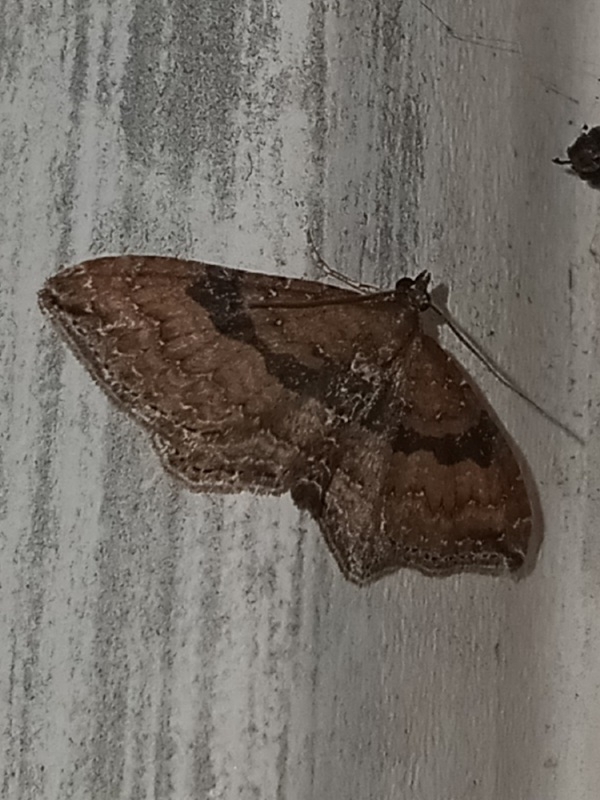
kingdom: Animalia
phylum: Arthropoda
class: Insecta
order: Lepidoptera
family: Geometridae
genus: Orthonama
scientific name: Orthonama obstipata
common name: The gem
